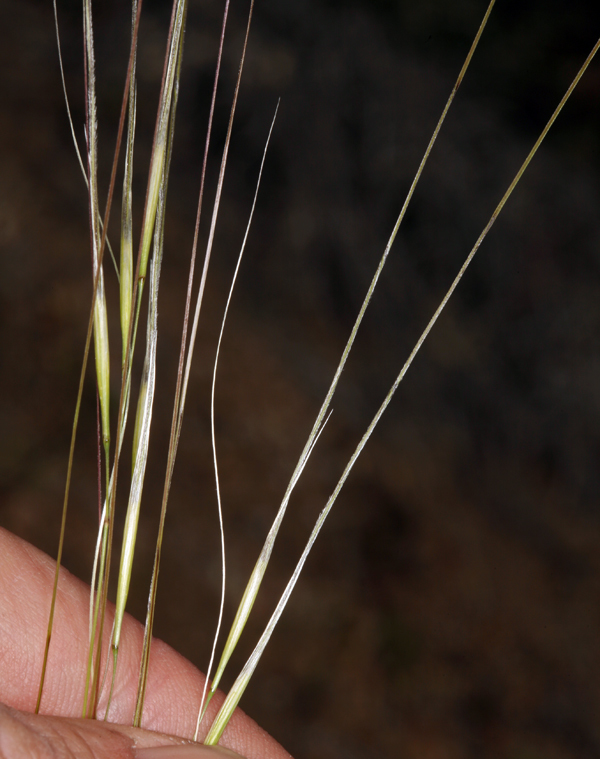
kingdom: Plantae
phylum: Tracheophyta
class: Liliopsida
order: Poales
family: Poaceae
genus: Hesperostipa
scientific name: Hesperostipa comata
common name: Needle-and-thread grass
